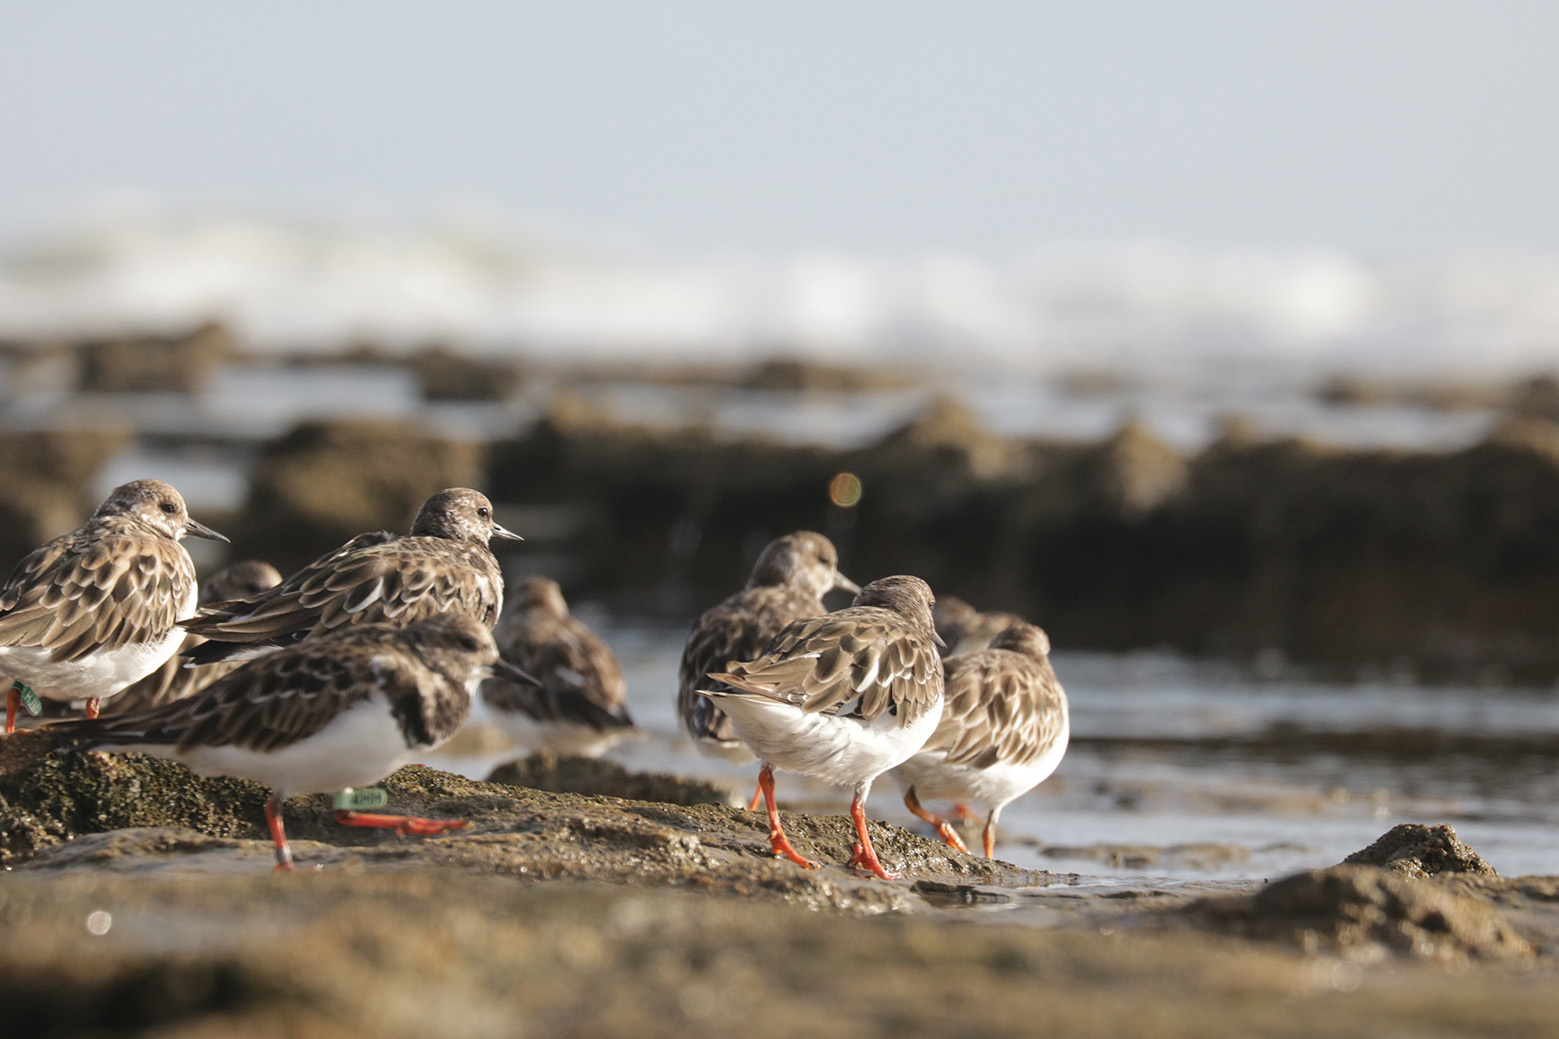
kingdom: Animalia
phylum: Chordata
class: Aves
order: Charadriiformes
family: Scolopacidae
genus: Arenaria
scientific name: Arenaria interpres
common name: Ruddy turnstone
